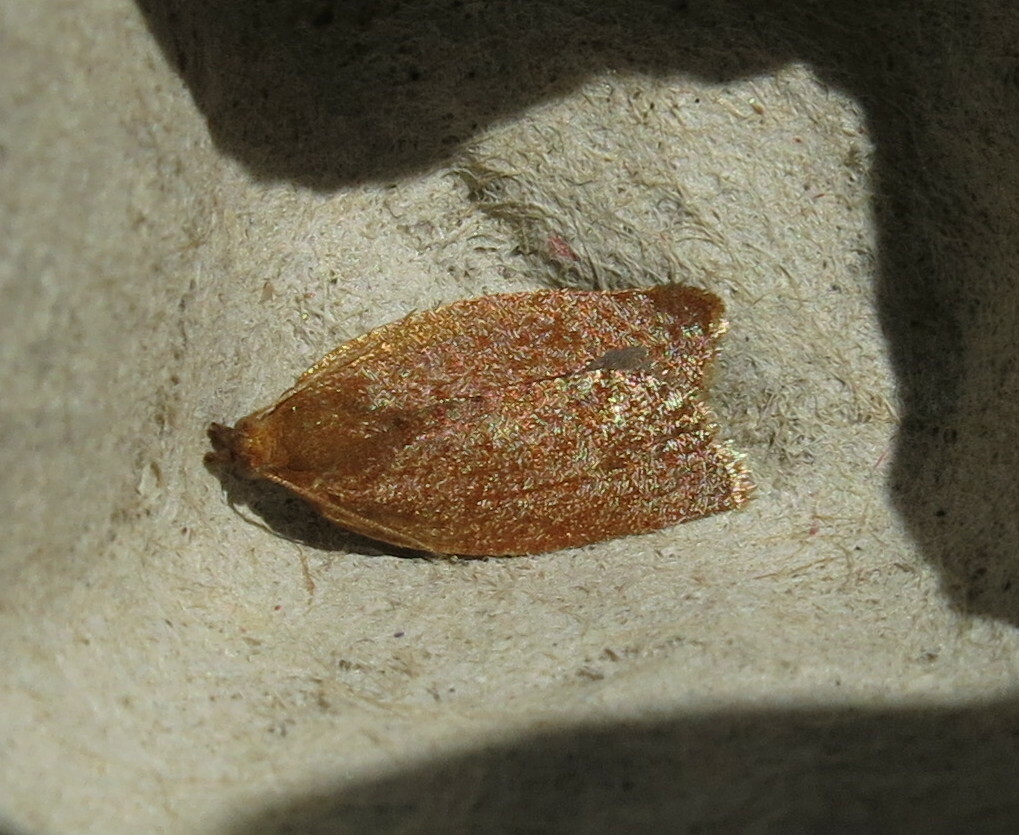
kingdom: Animalia
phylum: Arthropoda
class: Insecta
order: Lepidoptera
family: Tortricidae
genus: Clepsis
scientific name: Clepsis consimilana
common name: Privet tortrix
